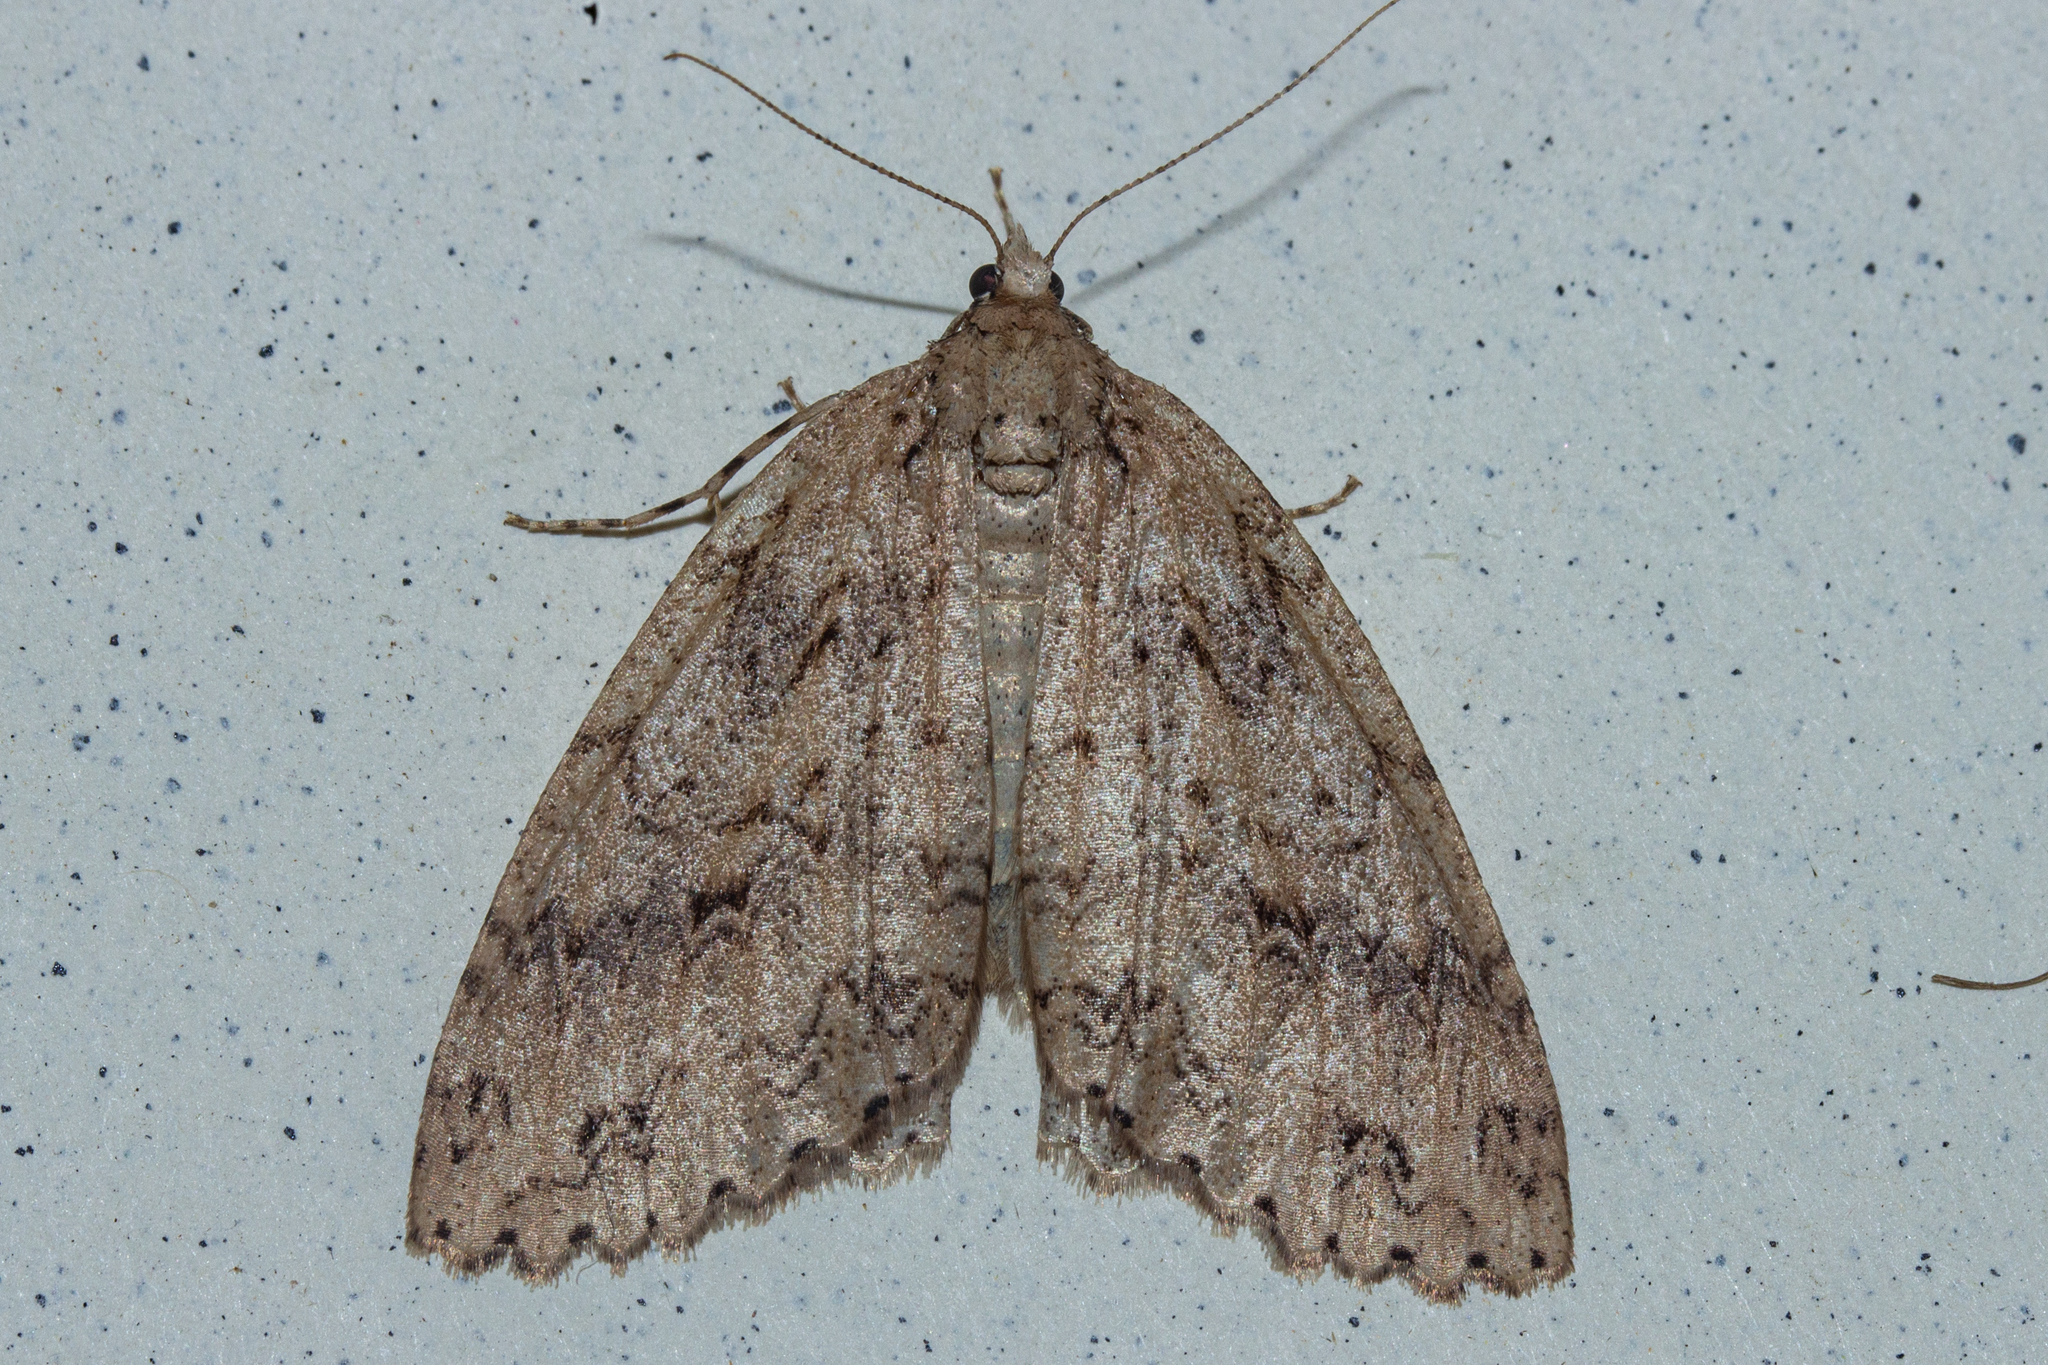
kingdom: Animalia
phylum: Arthropoda
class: Insecta
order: Lepidoptera
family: Geometridae
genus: Pseudocoremia
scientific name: Pseudocoremia rudisata
